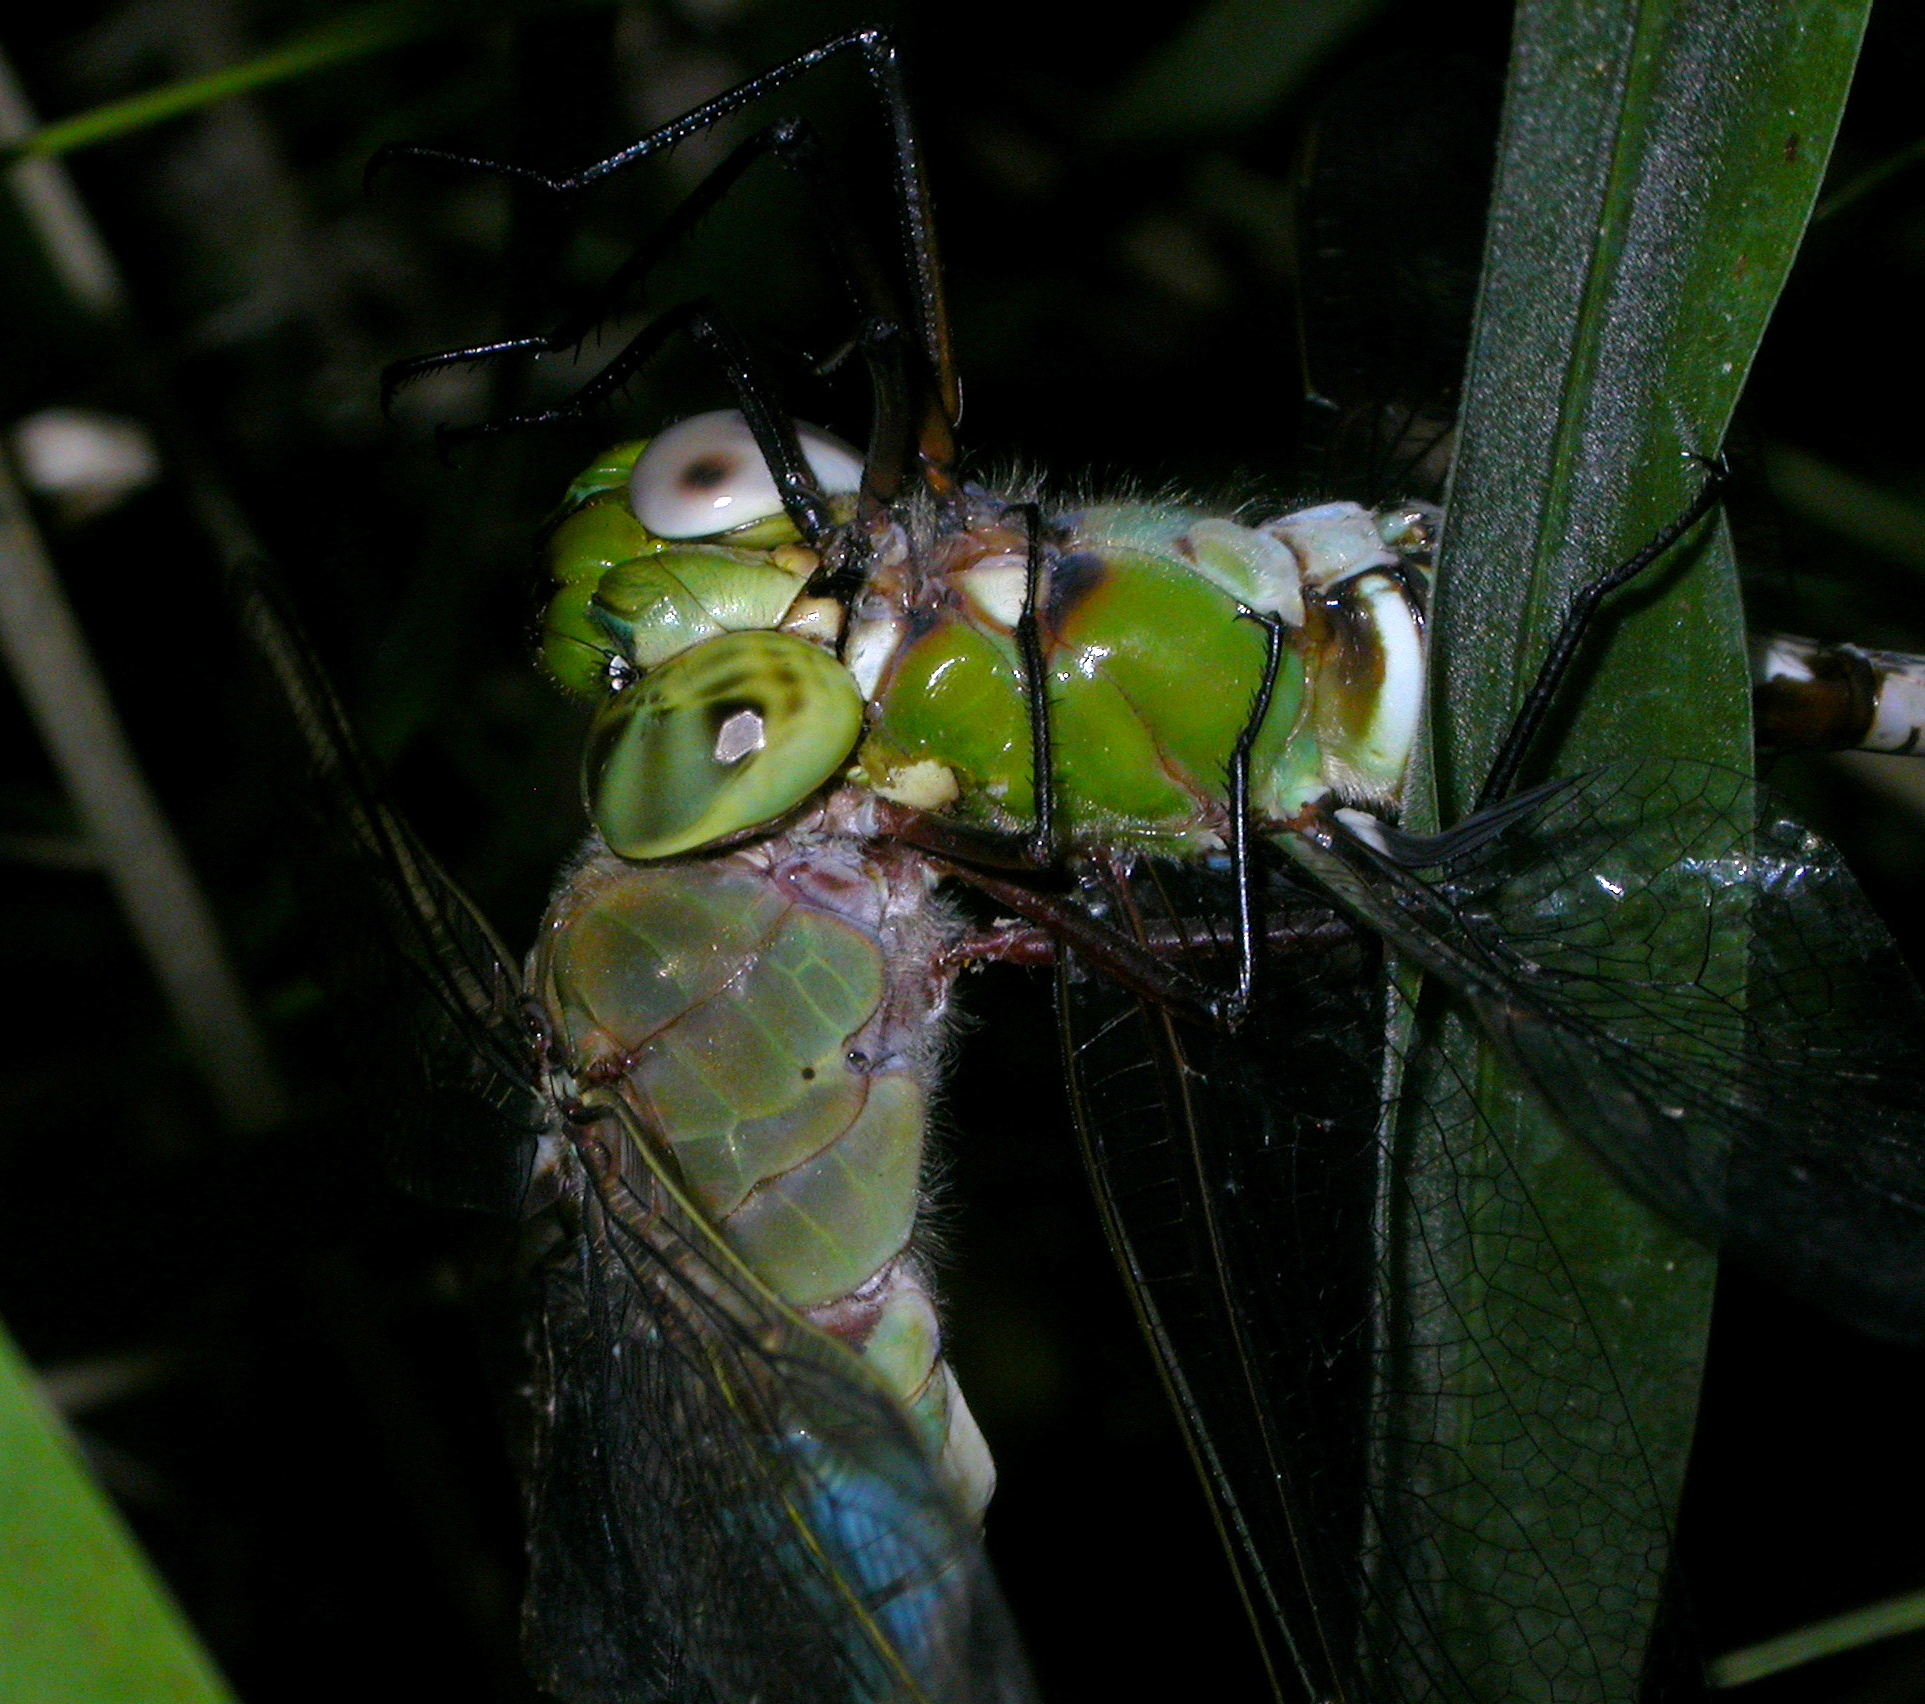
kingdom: Animalia
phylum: Arthropoda
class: Insecta
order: Odonata
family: Aeshnidae
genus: Anax
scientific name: Anax amazili
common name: Amazon darner
